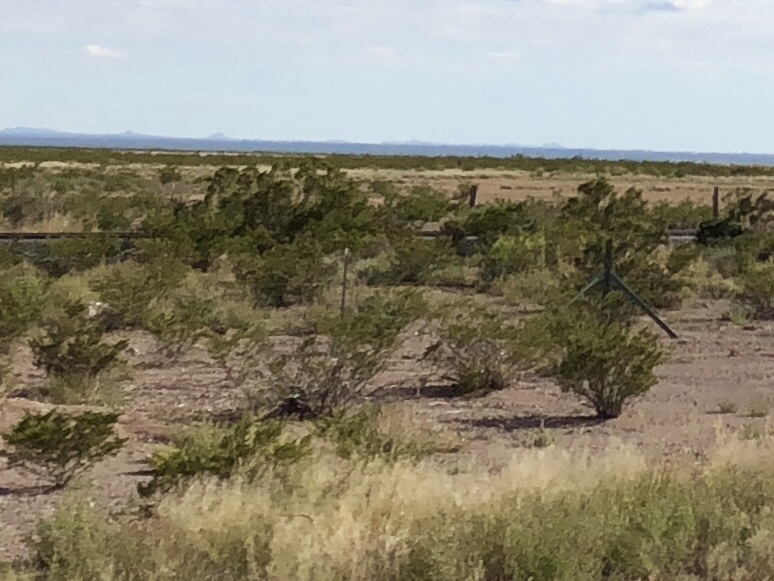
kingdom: Plantae
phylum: Tracheophyta
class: Magnoliopsida
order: Zygophyllales
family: Zygophyllaceae
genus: Larrea
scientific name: Larrea tridentata
